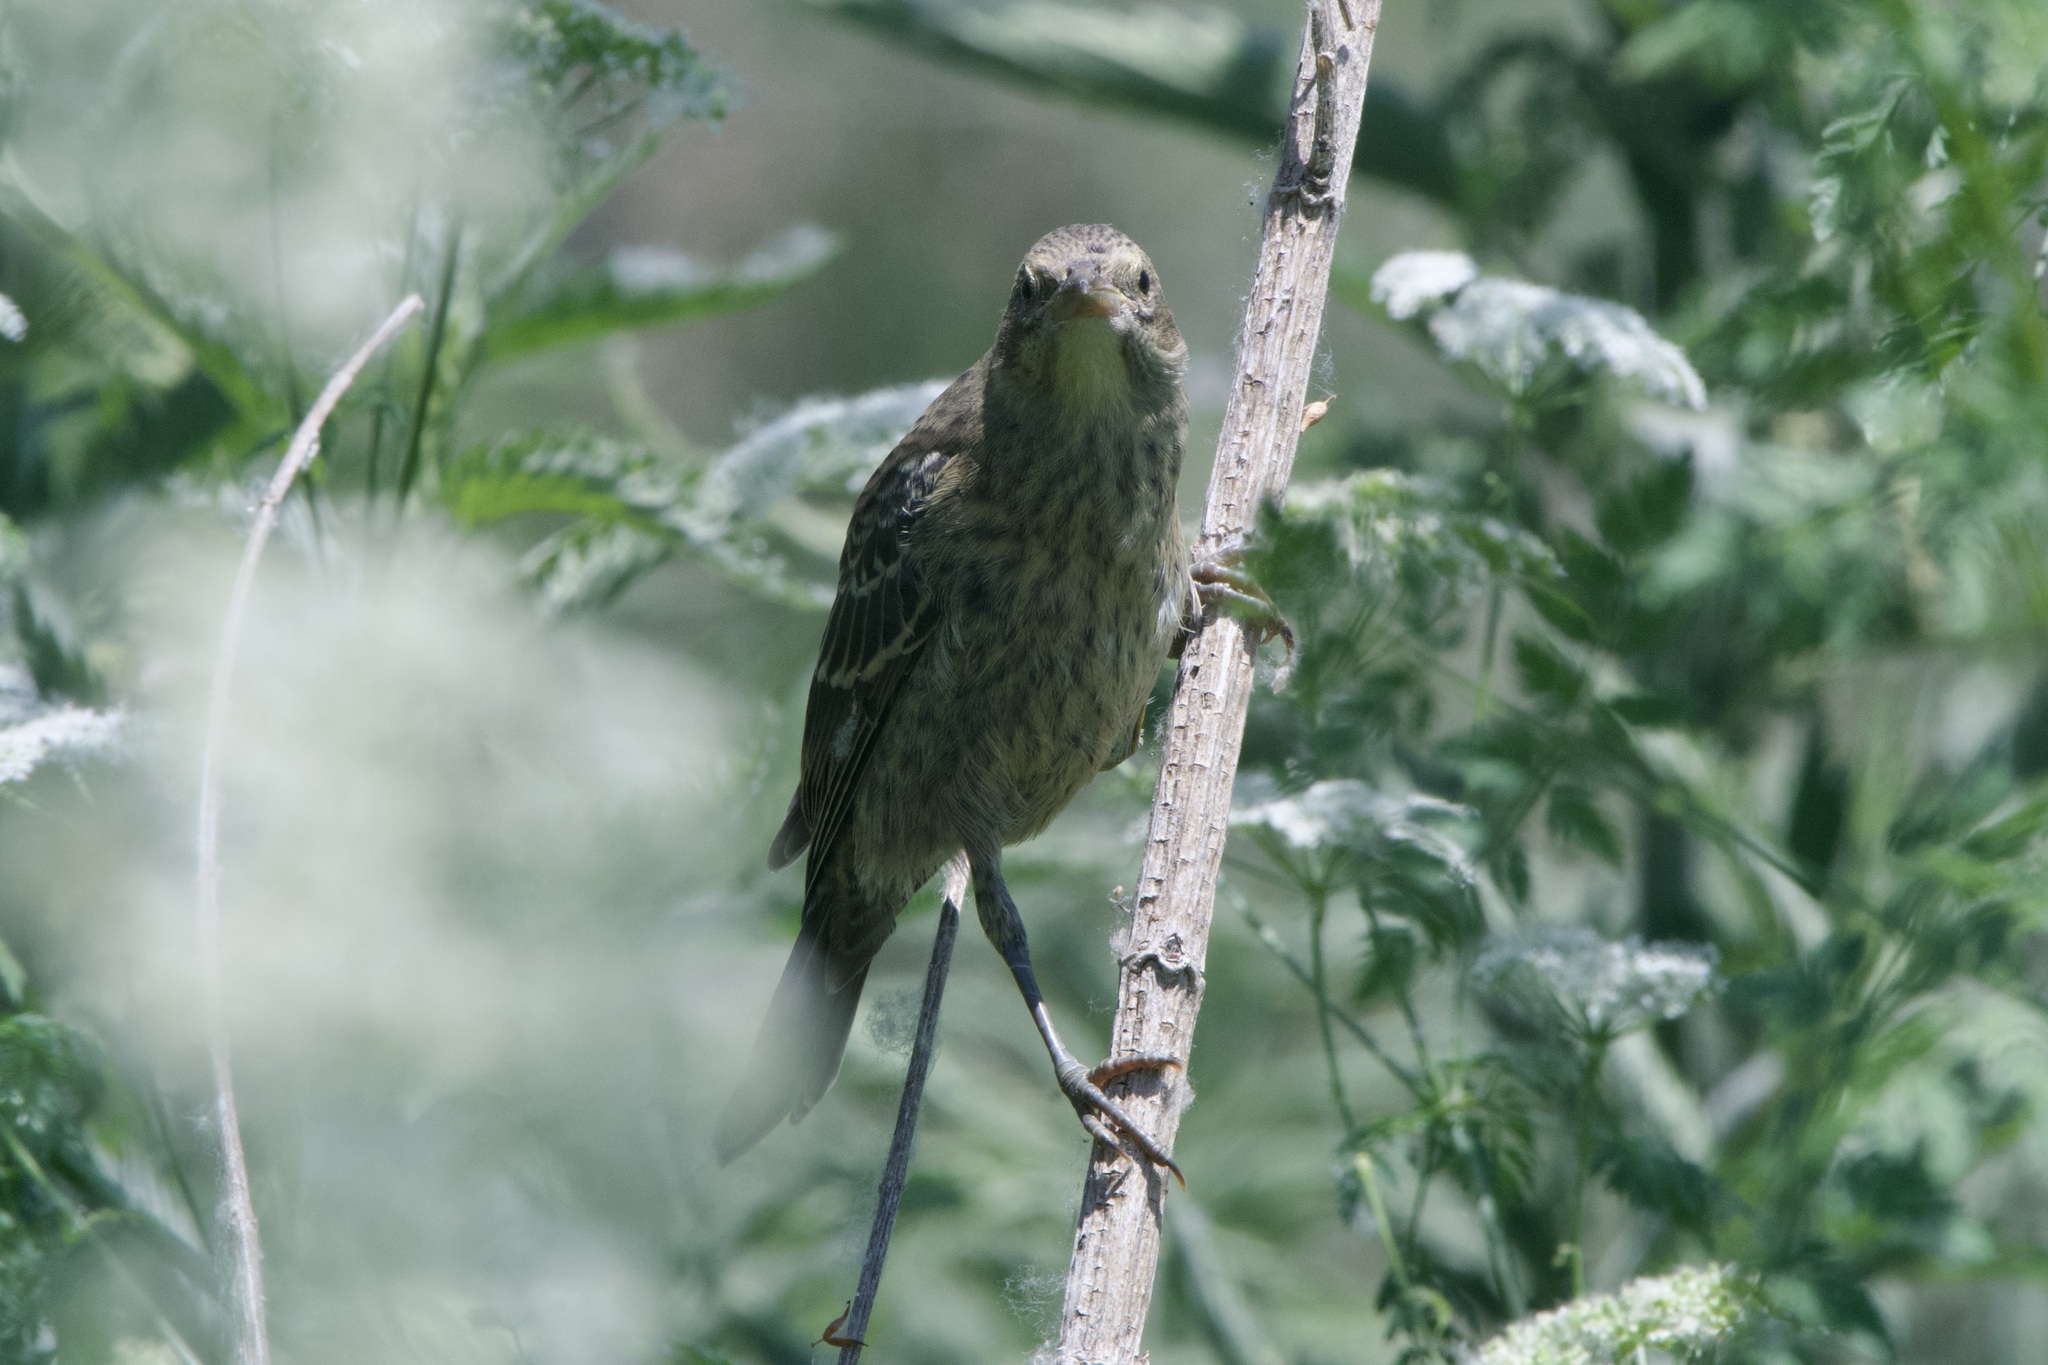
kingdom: Animalia
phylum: Chordata
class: Aves
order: Passeriformes
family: Icteridae
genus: Agelaius
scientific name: Agelaius phoeniceus
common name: Red-winged blackbird
